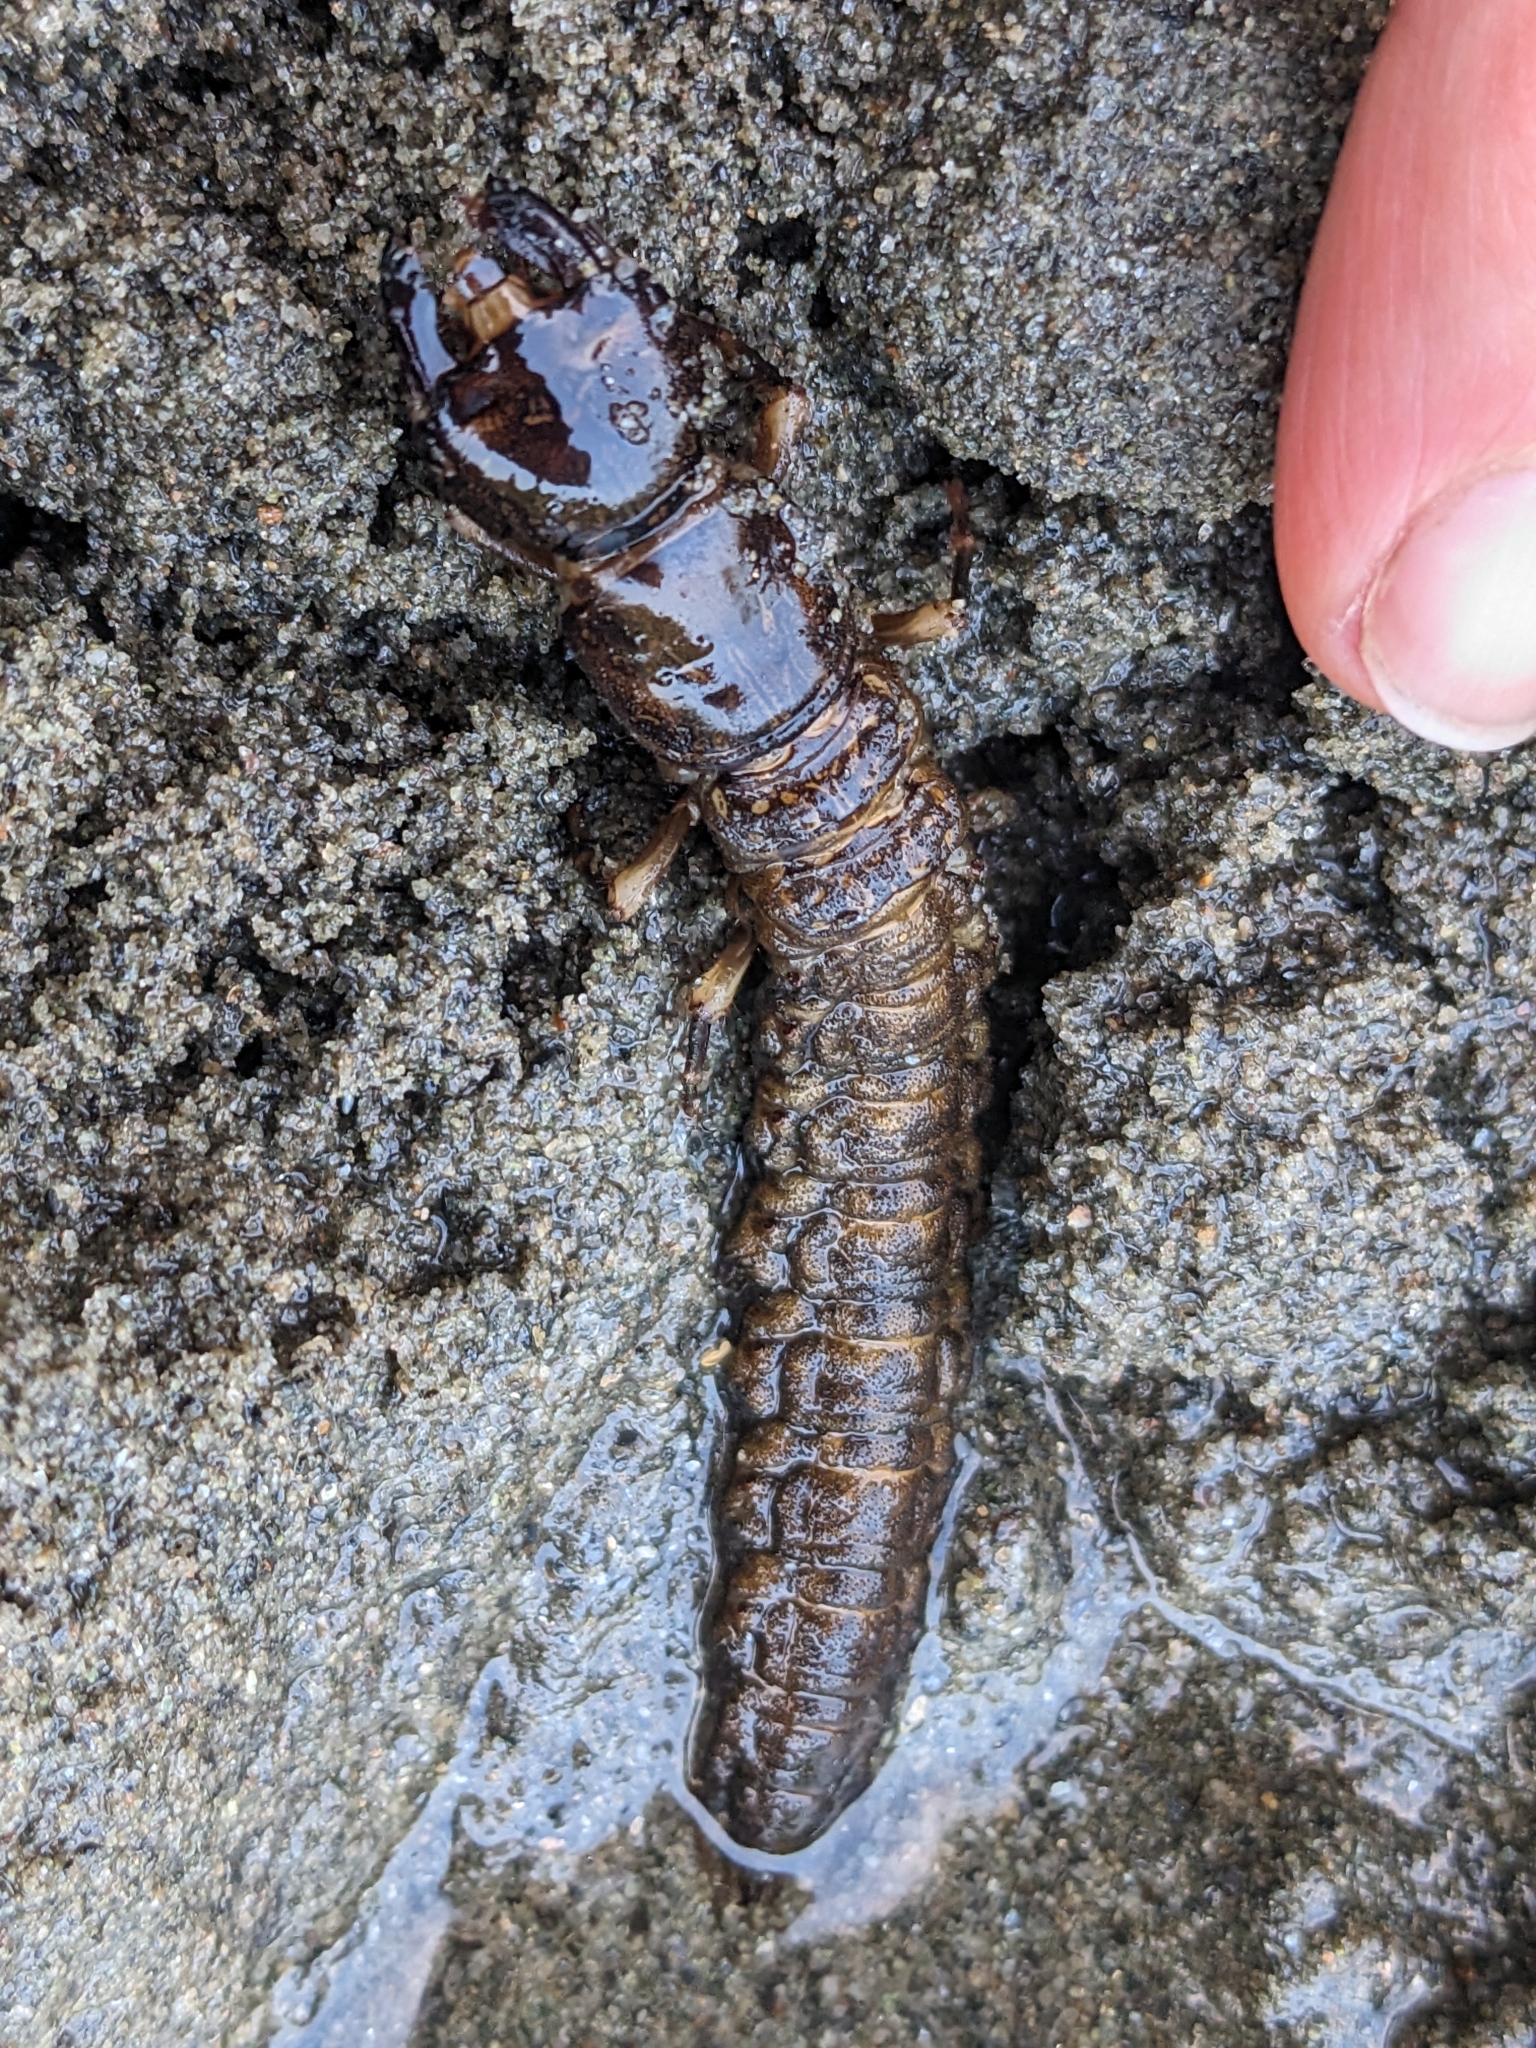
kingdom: Animalia
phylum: Arthropoda
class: Insecta
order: Megaloptera
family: Corydalidae
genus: Corydalus
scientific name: Corydalus cornutus
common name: Dobsonfly
